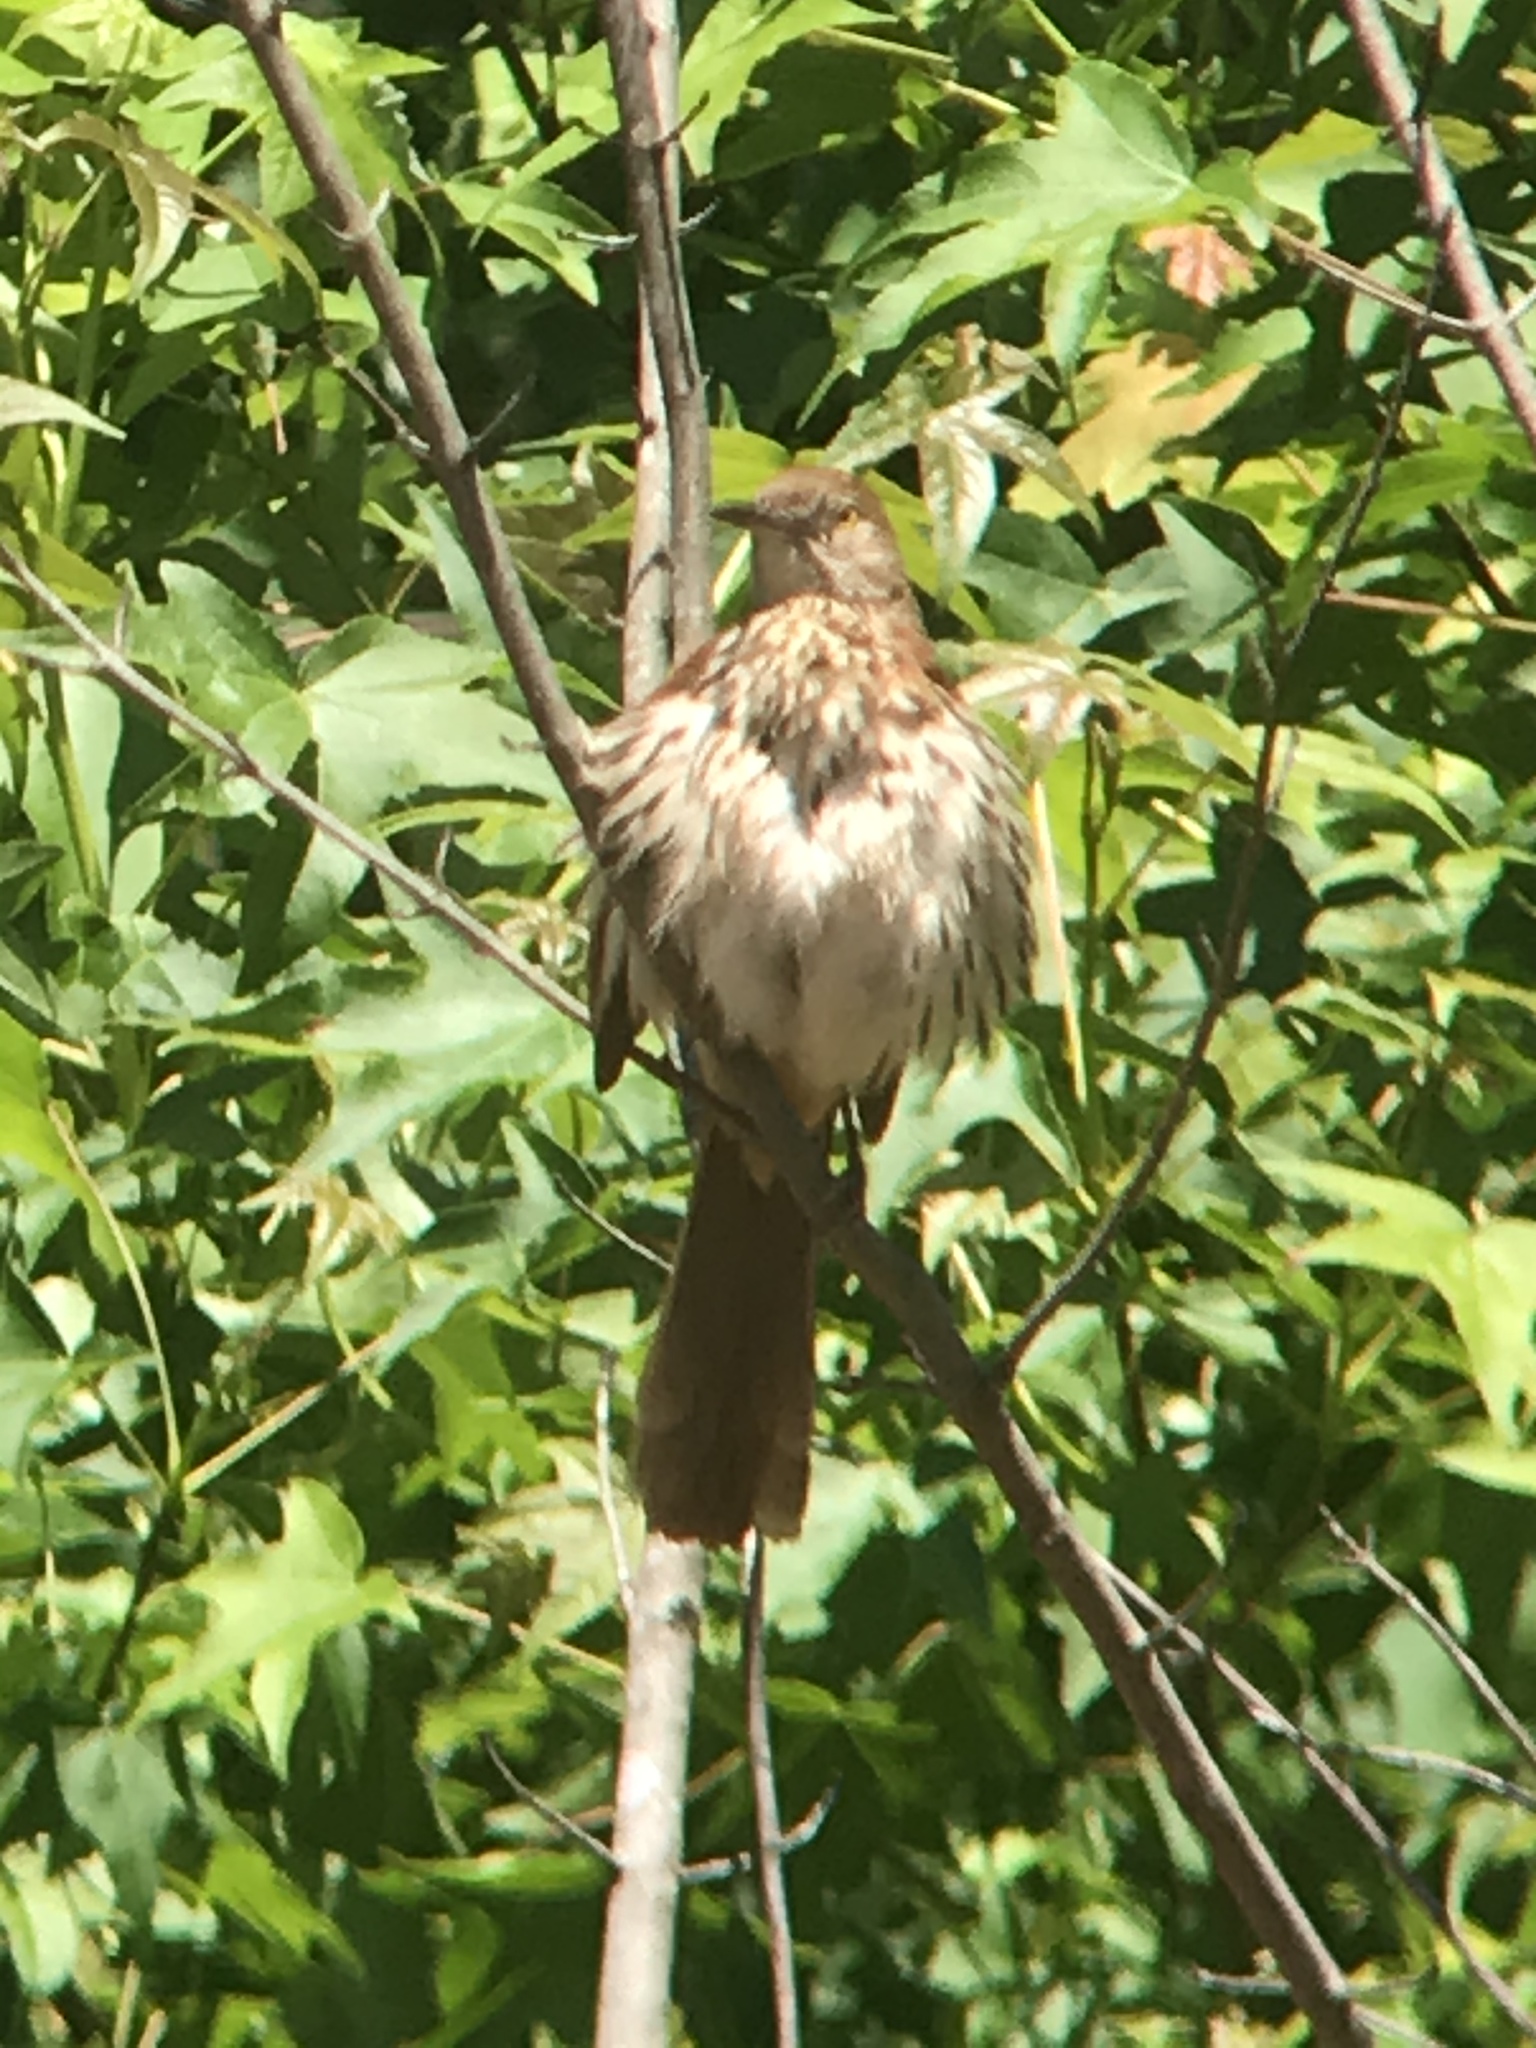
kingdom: Animalia
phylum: Chordata
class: Aves
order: Passeriformes
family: Mimidae
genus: Toxostoma
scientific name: Toxostoma rufum
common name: Brown thrasher
